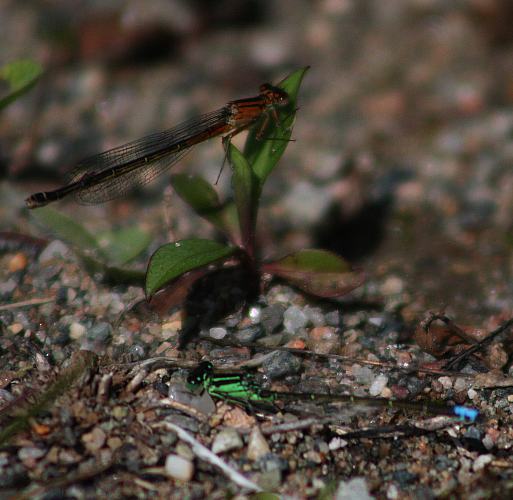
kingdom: Animalia
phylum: Arthropoda
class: Insecta
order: Odonata
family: Coenagrionidae
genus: Ischnura
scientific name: Ischnura verticalis
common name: Eastern forktail
